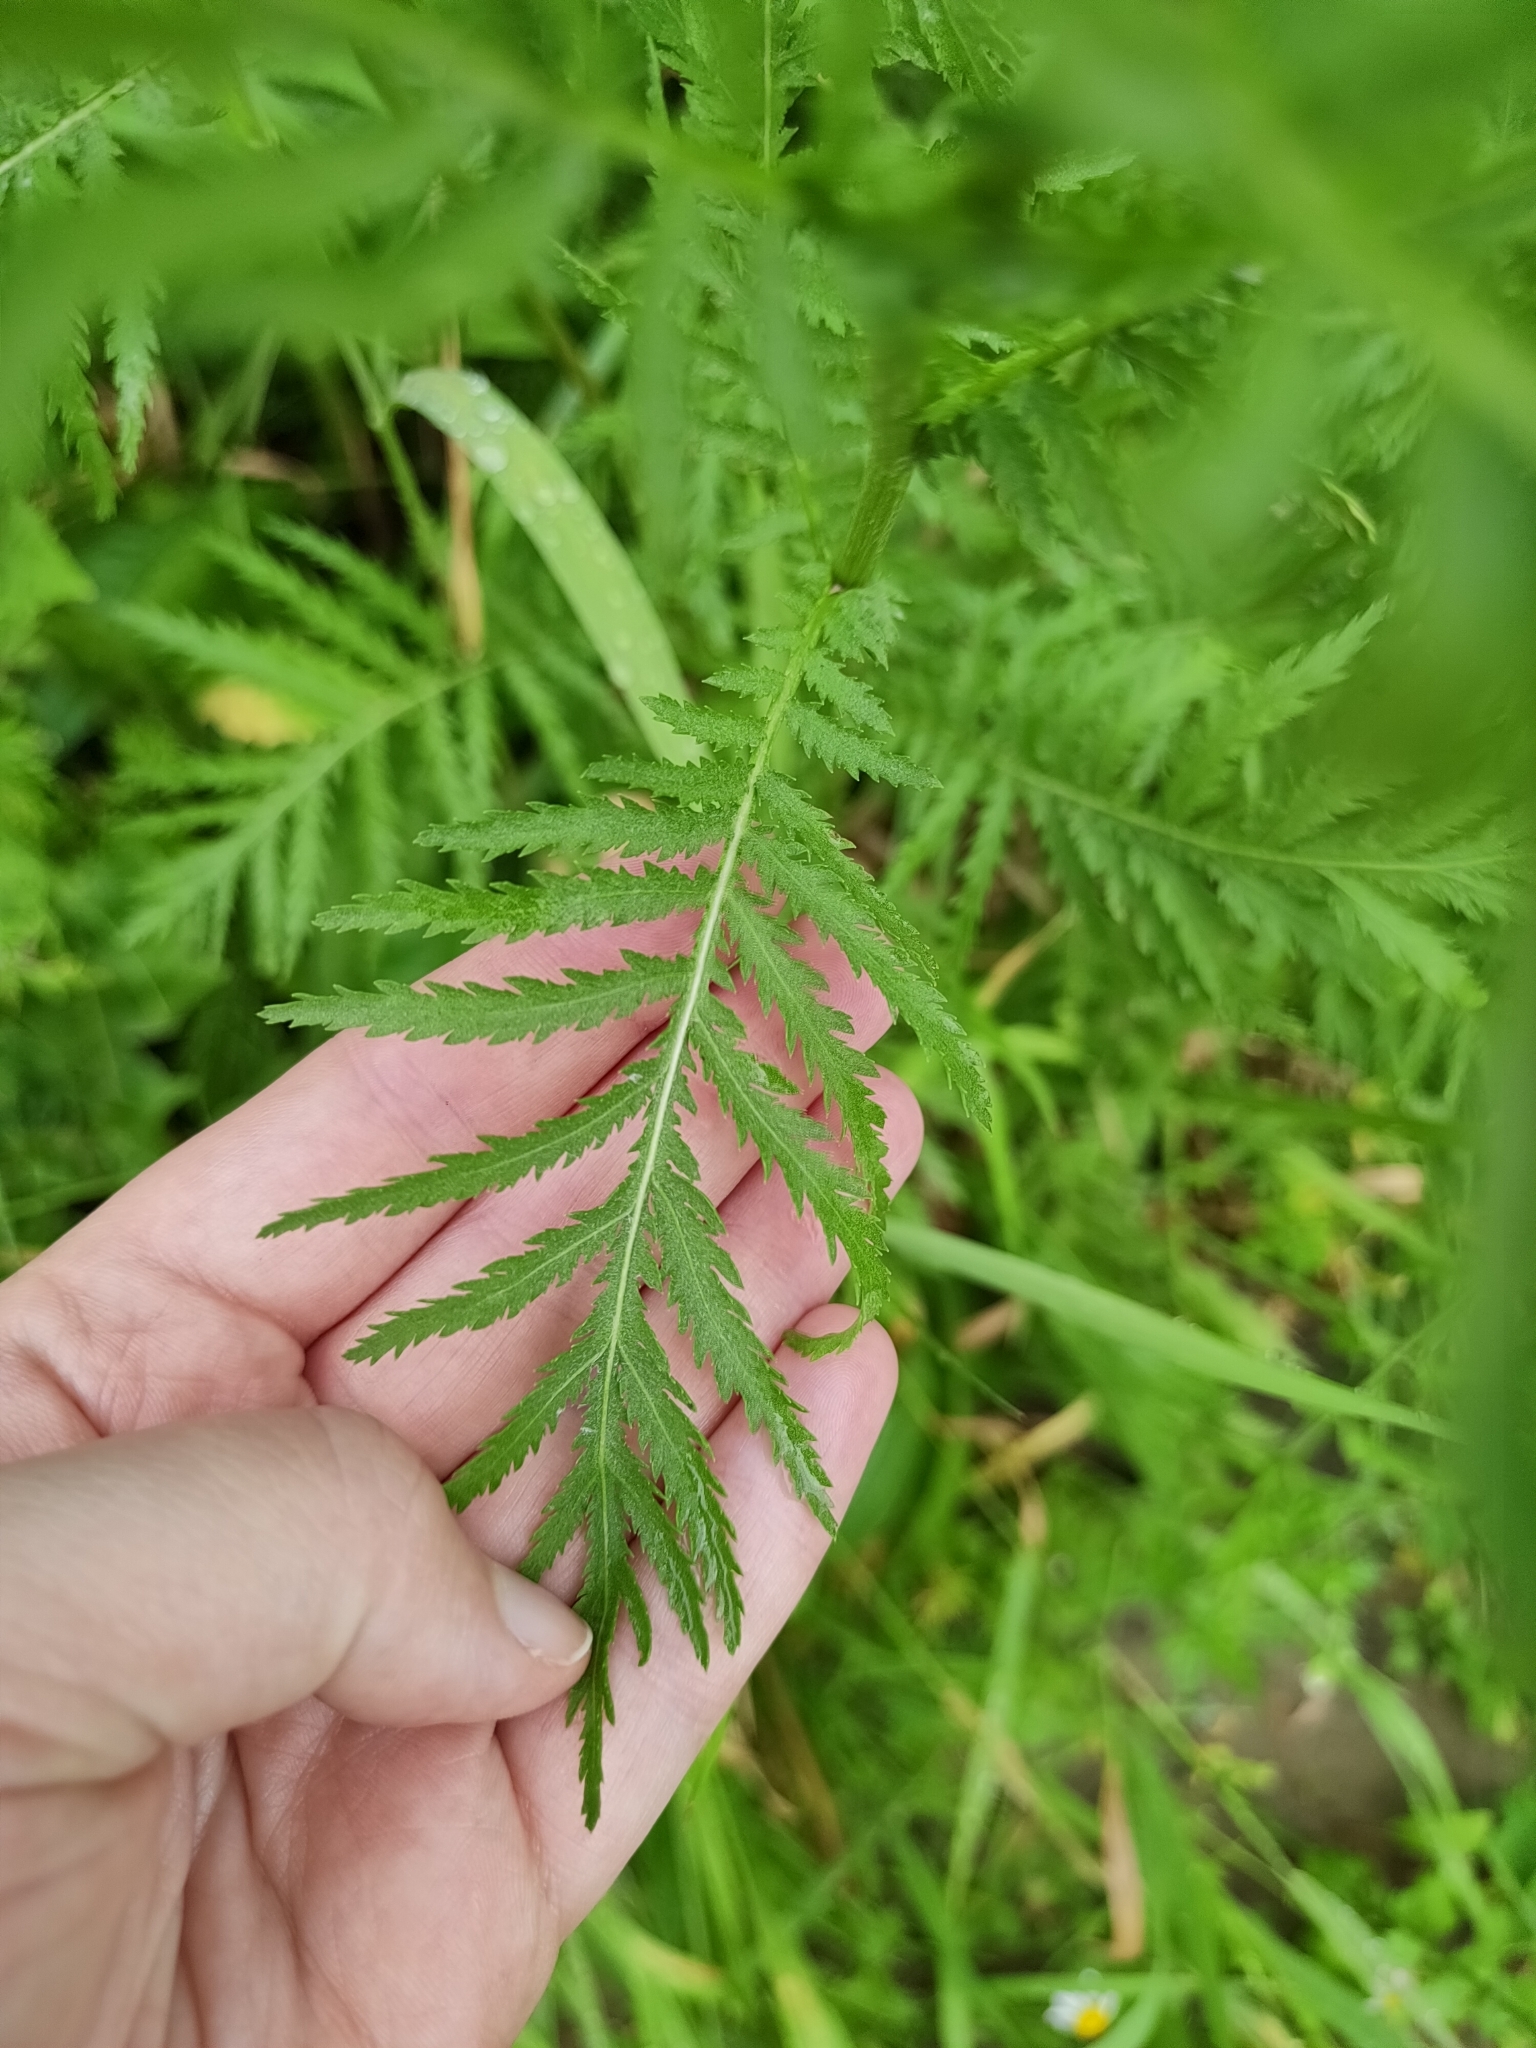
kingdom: Plantae
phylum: Tracheophyta
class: Magnoliopsida
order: Asterales
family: Asteraceae
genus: Tanacetum
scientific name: Tanacetum vulgare
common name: Common tansy
